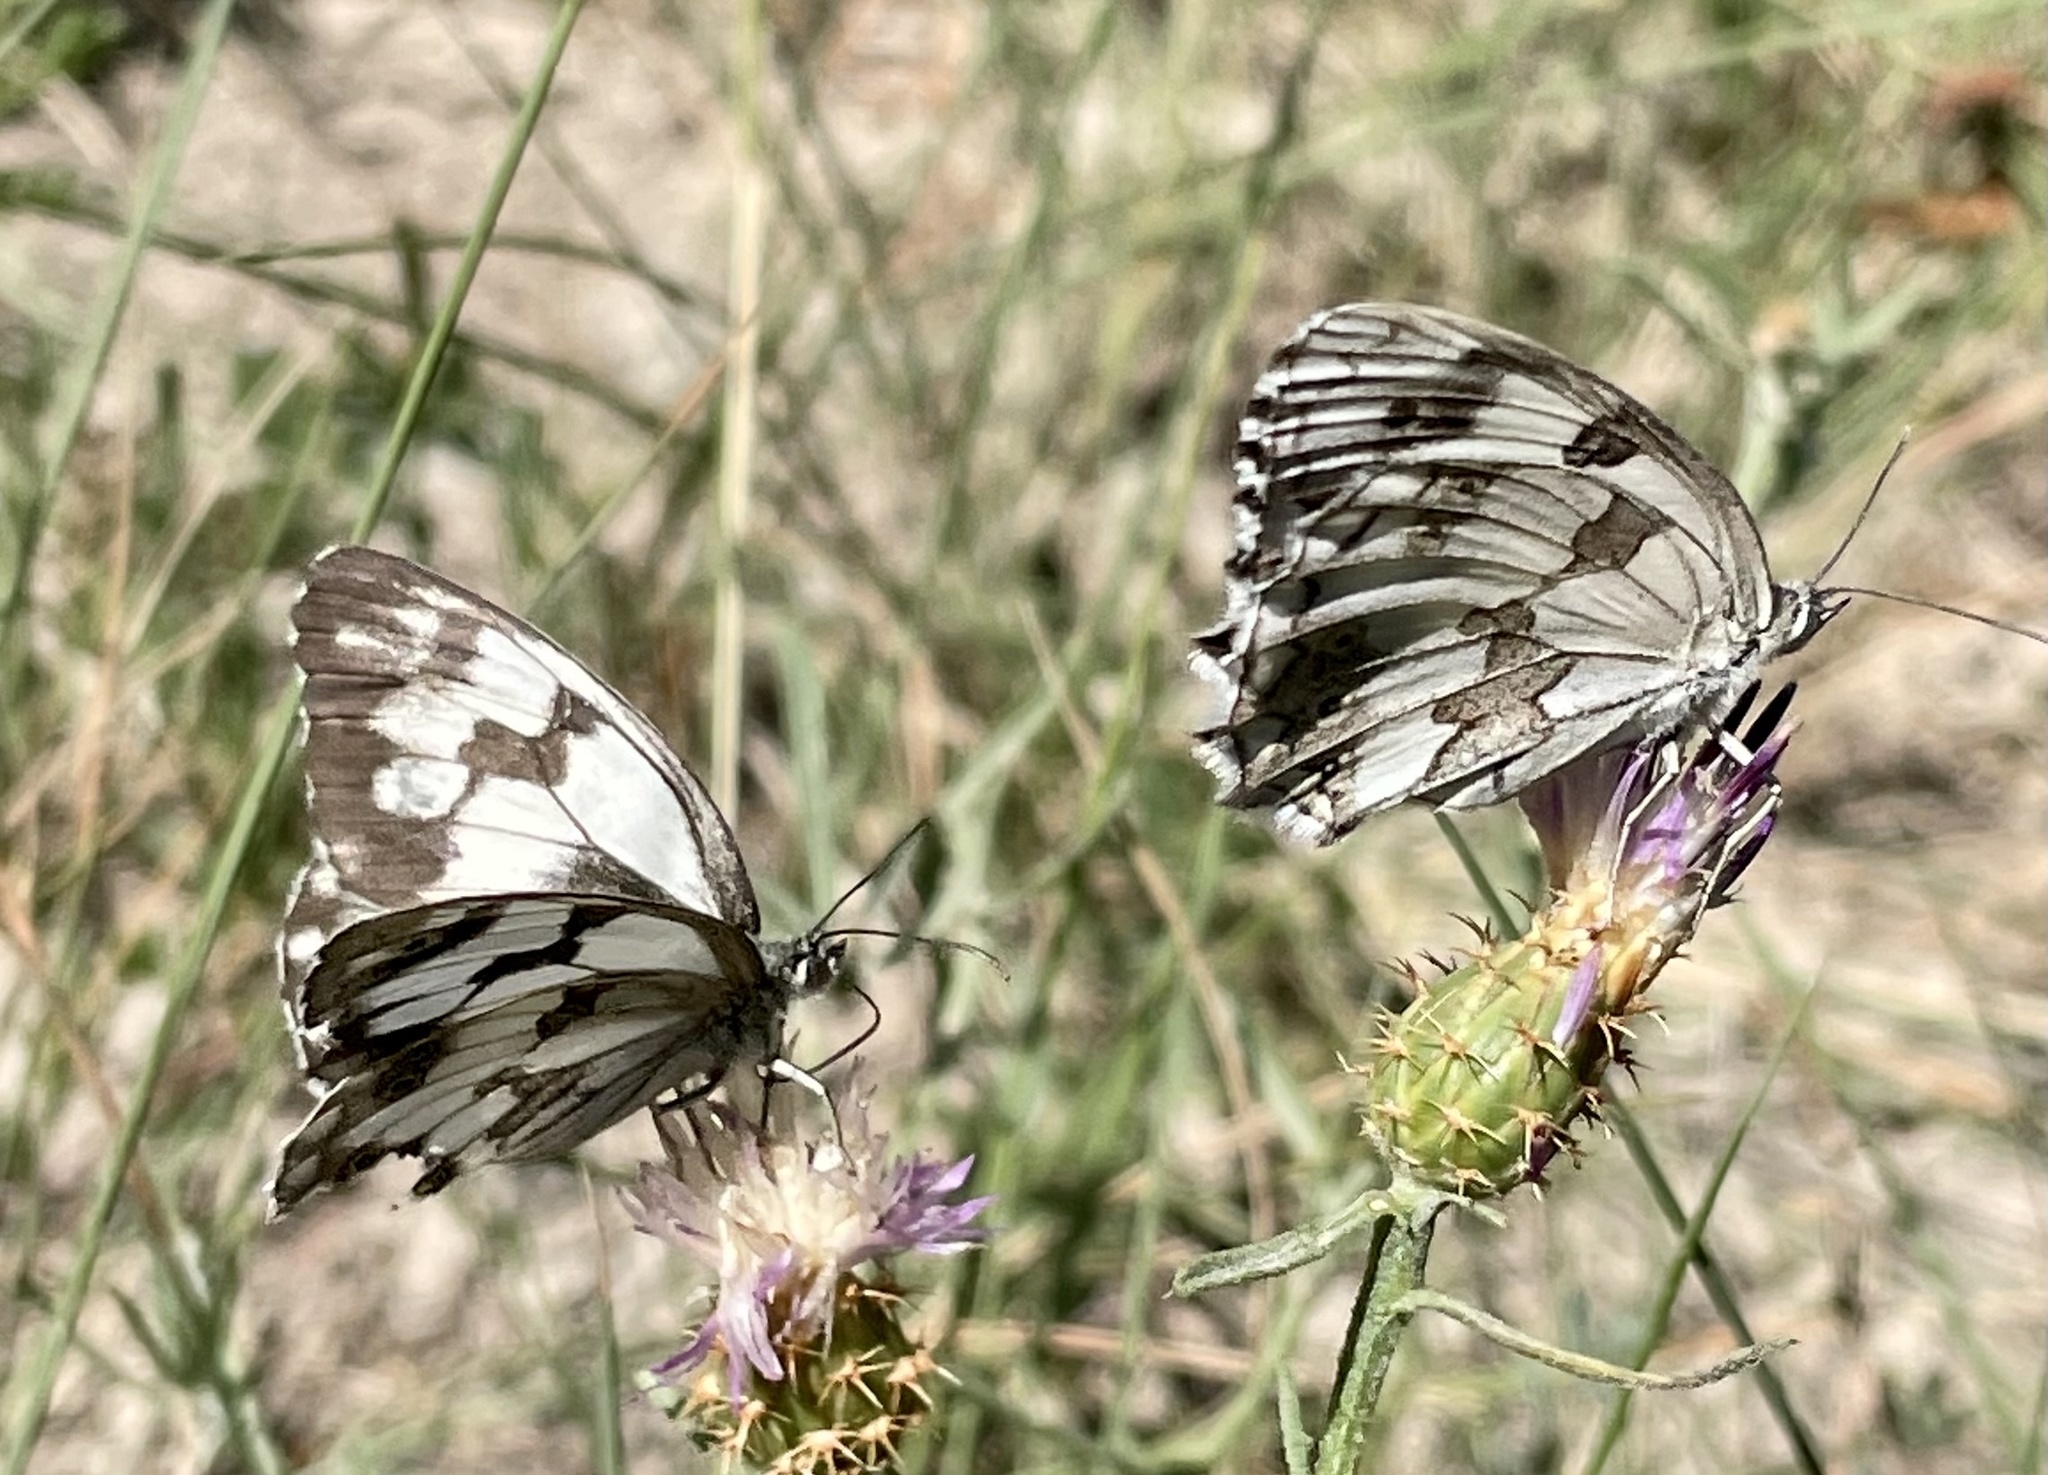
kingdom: Animalia
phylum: Arthropoda
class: Insecta
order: Lepidoptera
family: Nymphalidae
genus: Melanargia
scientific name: Melanargia lachesis
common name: Iberian marbled white
